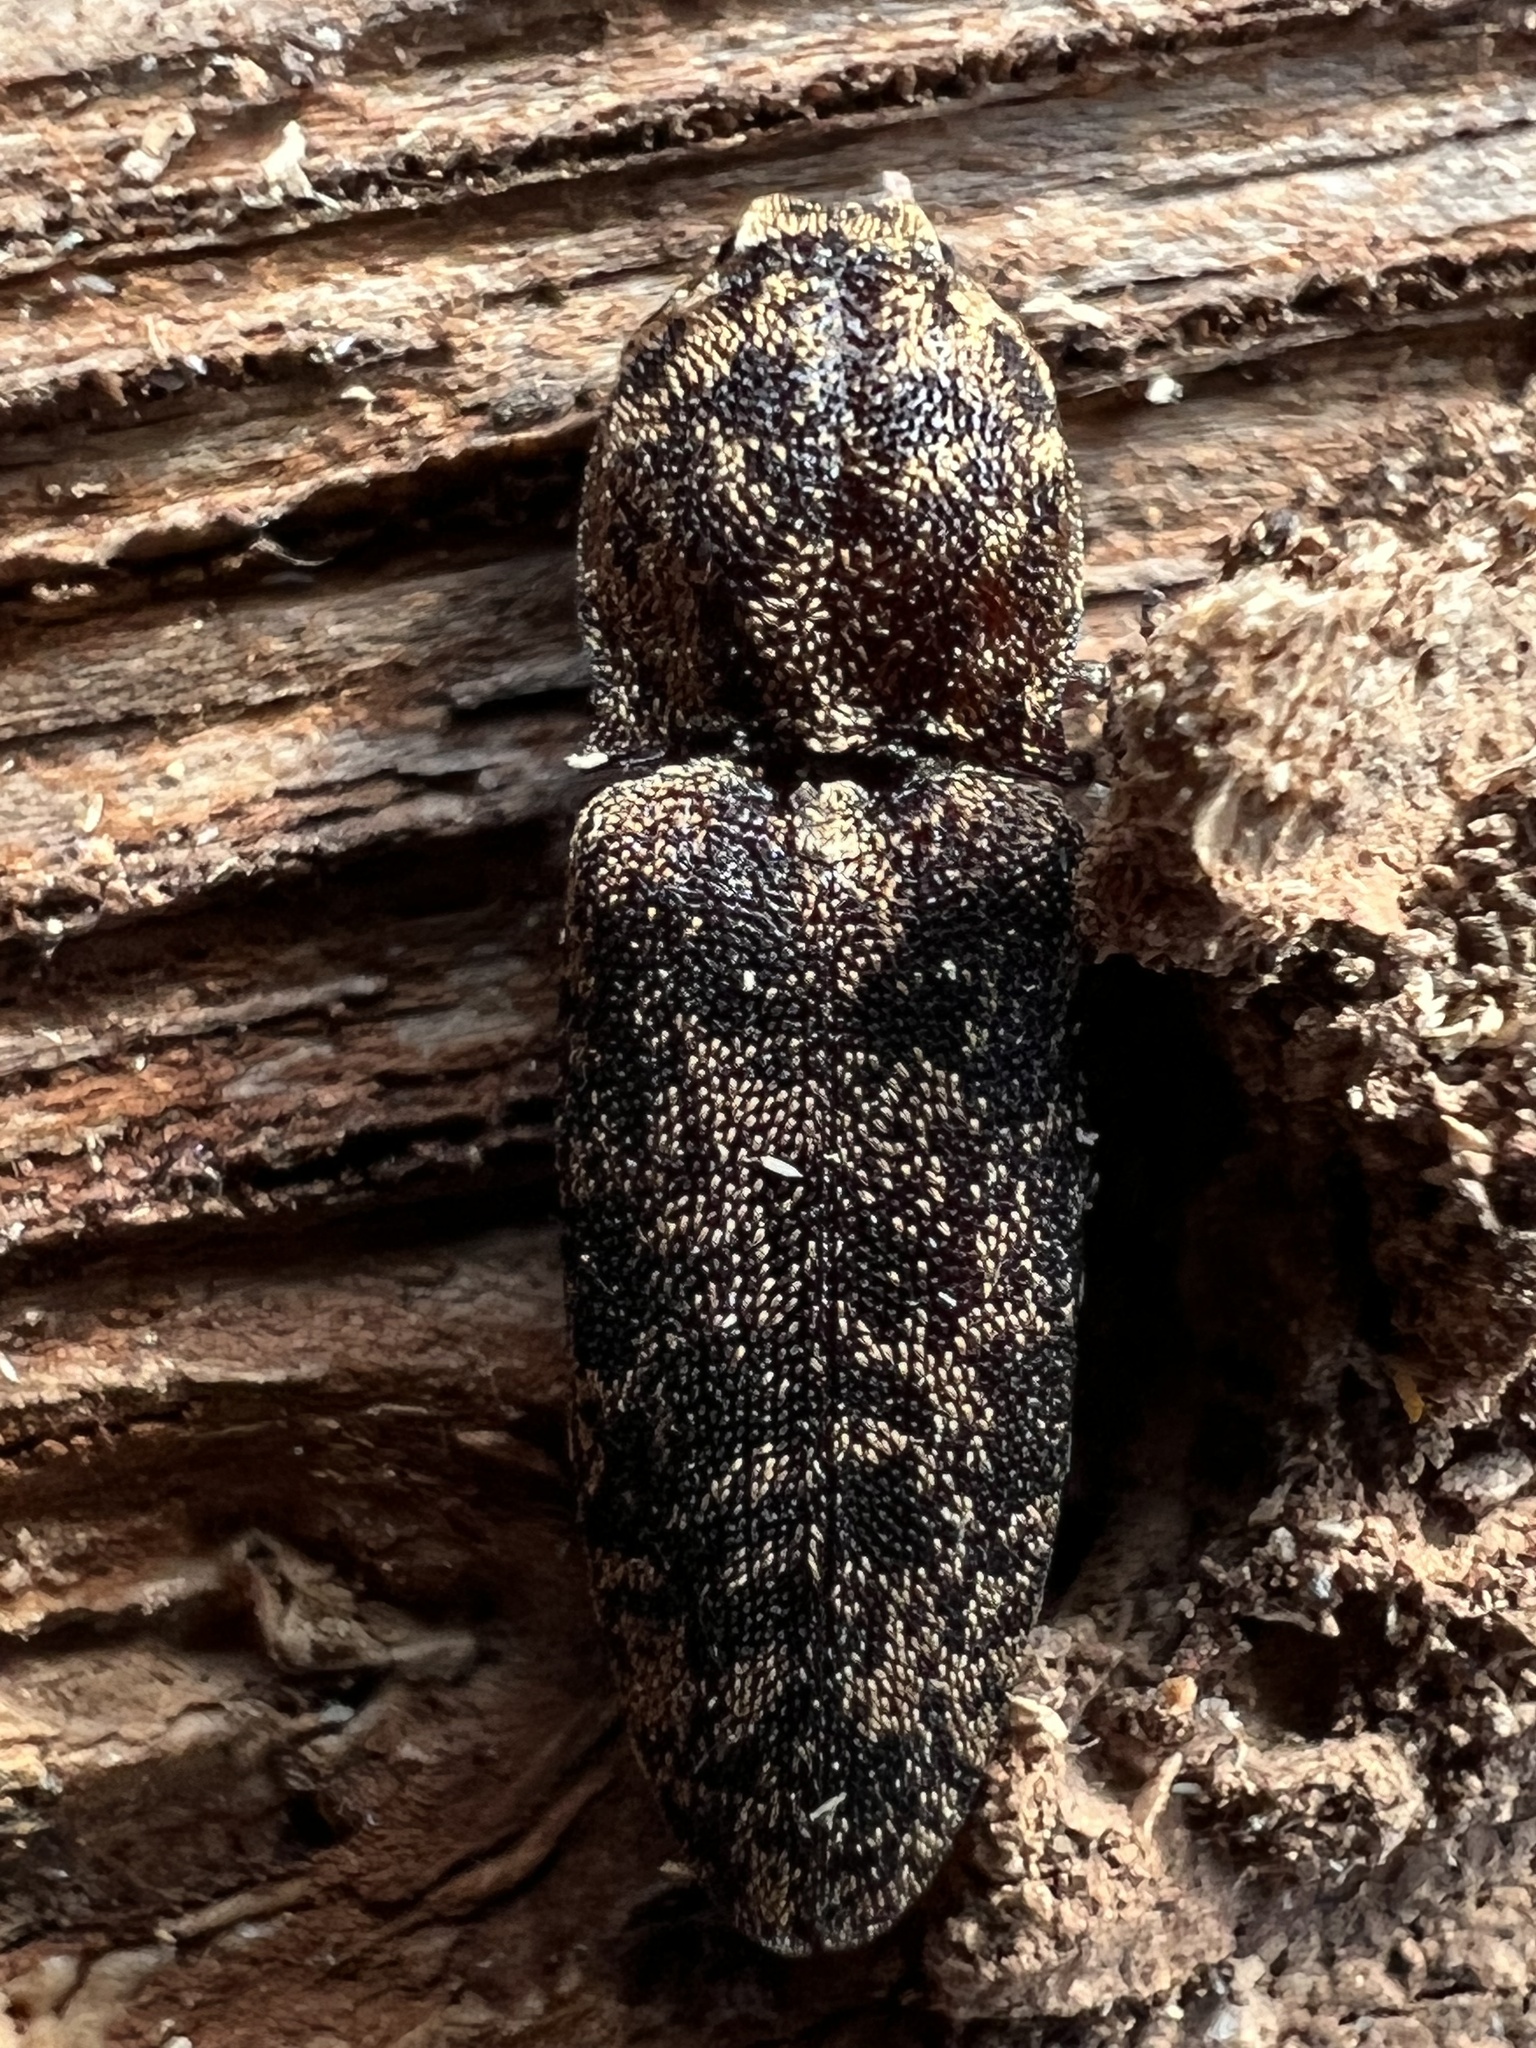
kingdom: Animalia
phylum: Arthropoda
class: Insecta
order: Coleoptera
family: Elateridae
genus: Lacon
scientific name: Lacon marmoratus
